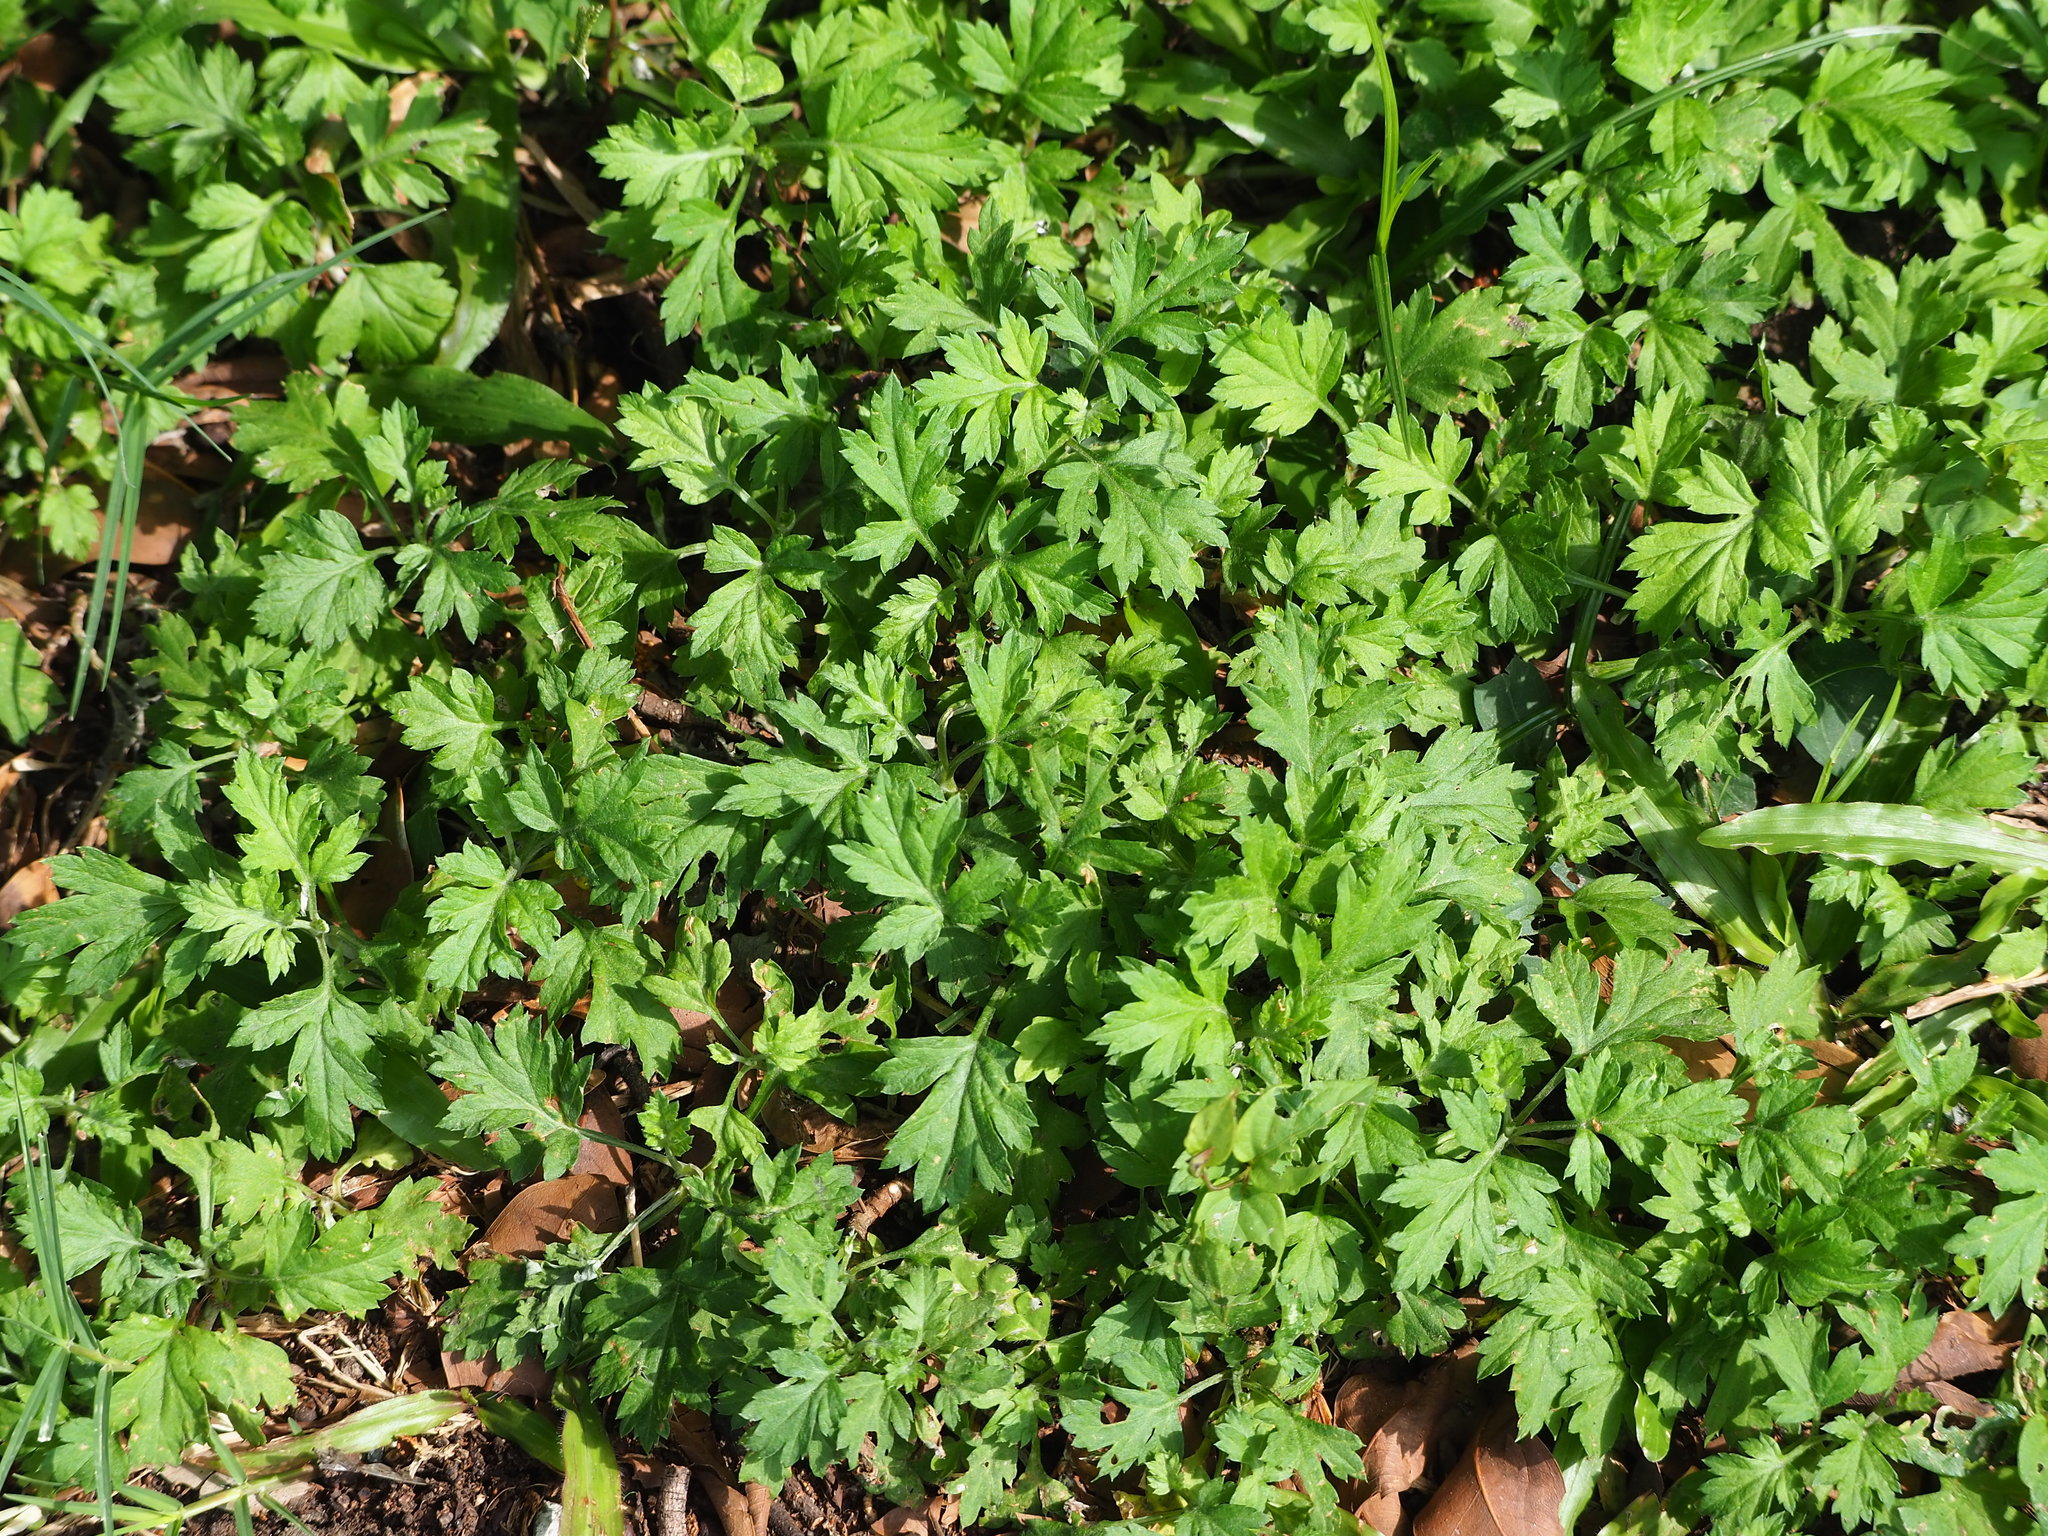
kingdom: Plantae
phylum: Tracheophyta
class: Magnoliopsida
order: Asterales
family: Asteraceae
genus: Artemisia
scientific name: Artemisia indica
